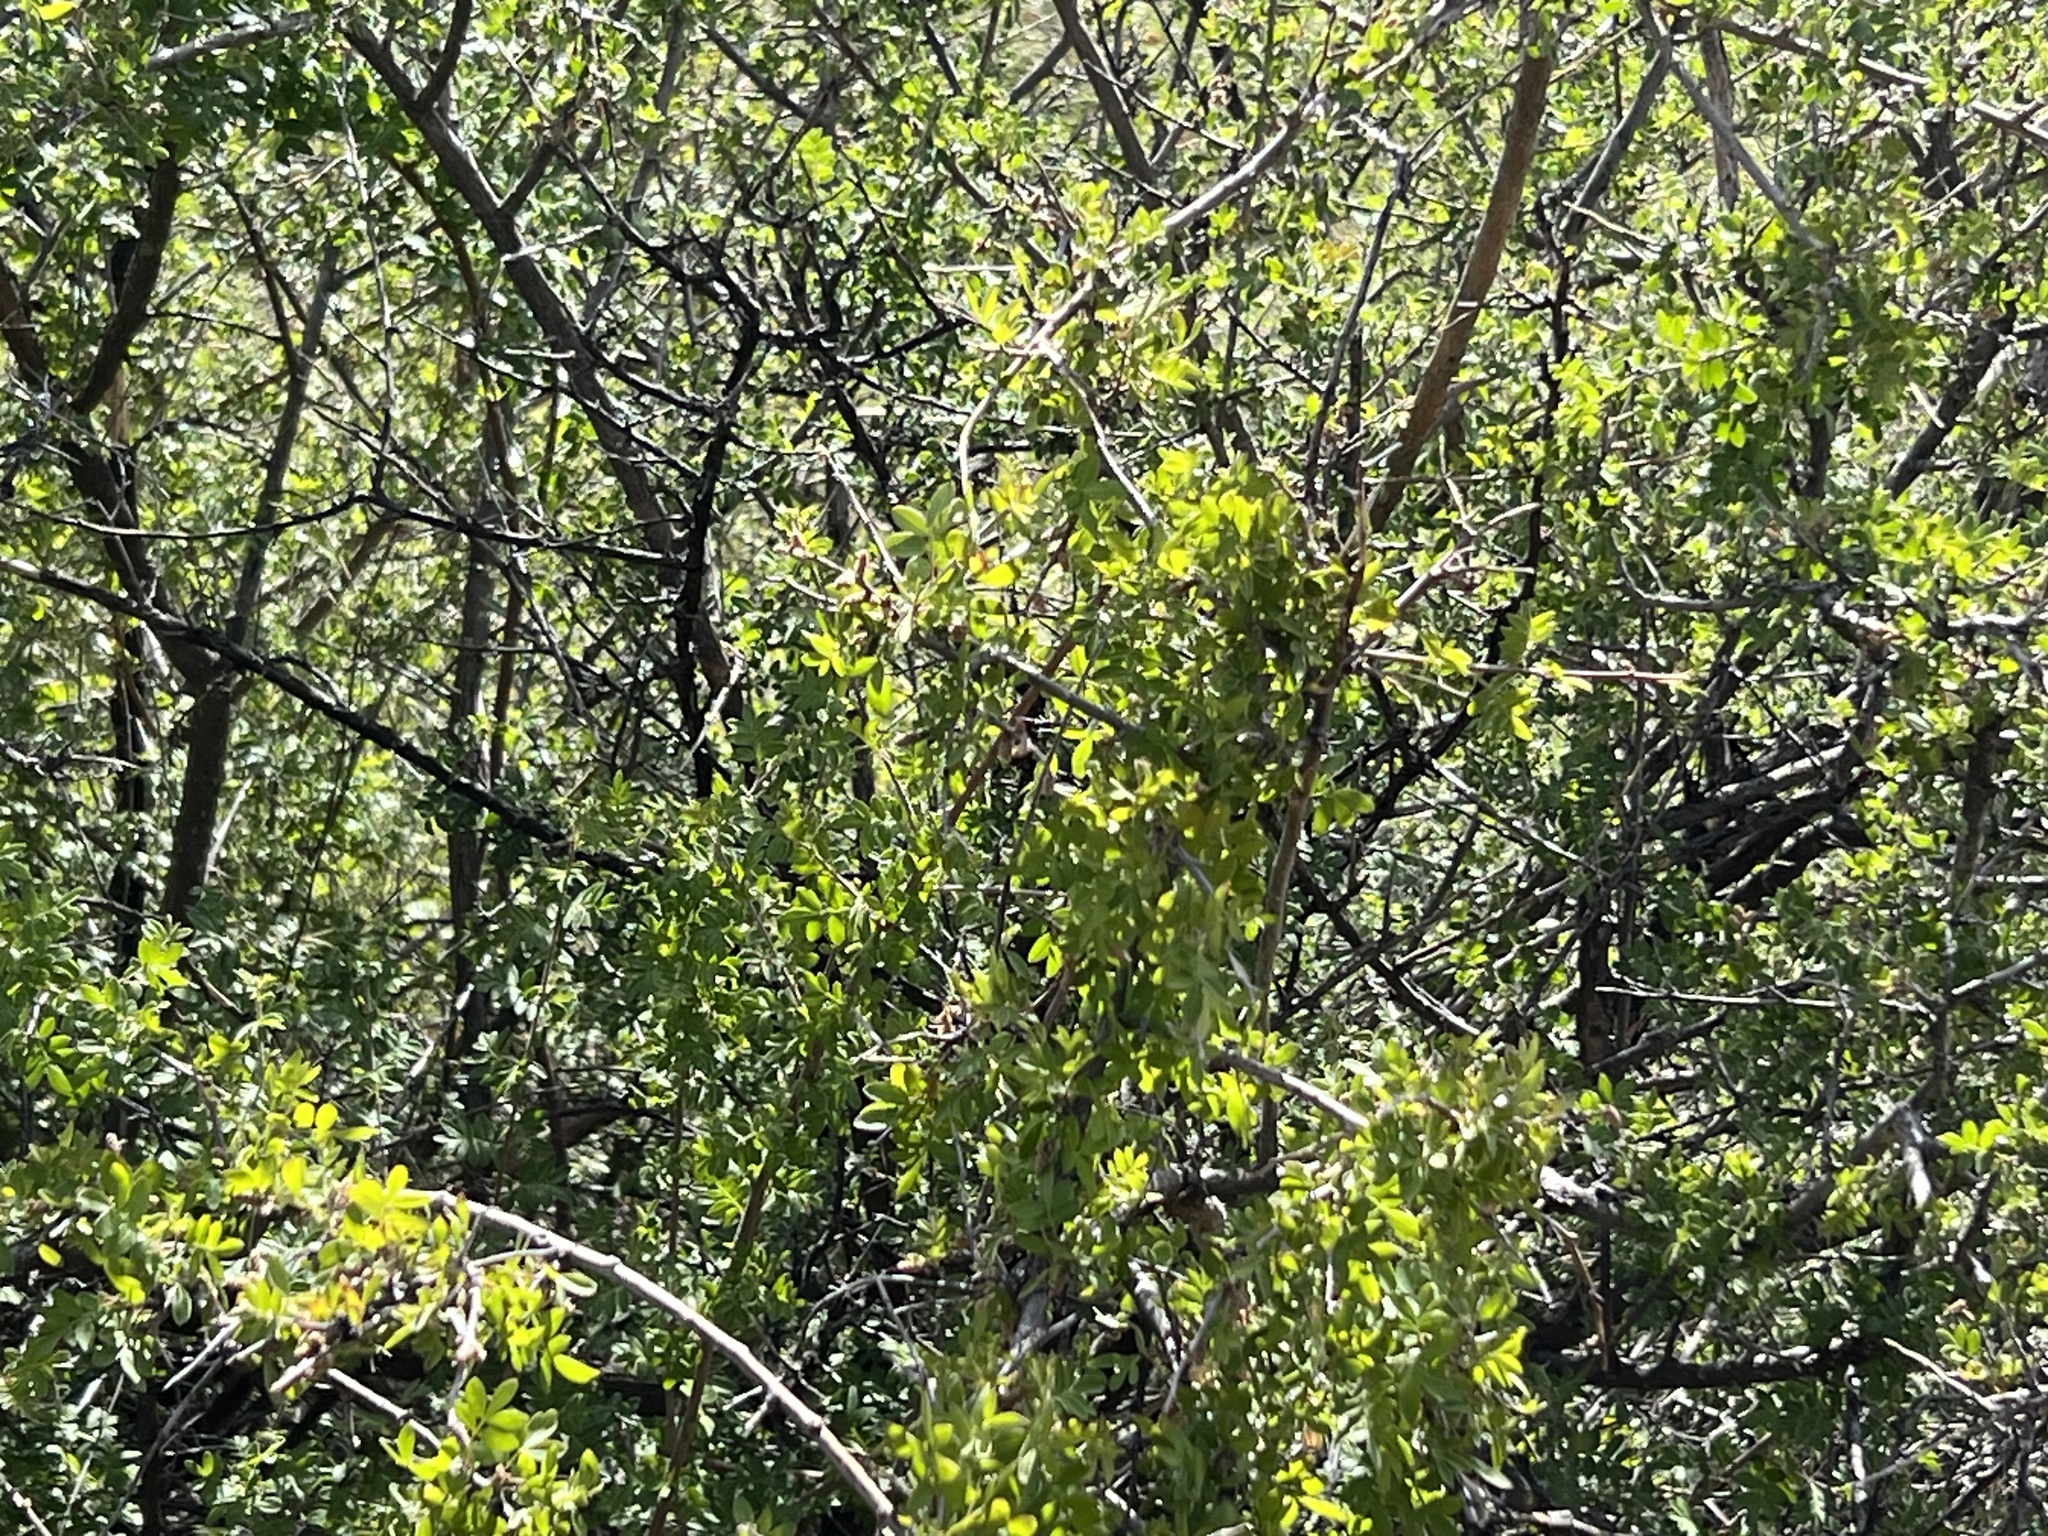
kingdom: Plantae
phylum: Tracheophyta
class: Magnoliopsida
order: Sapindales
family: Anacardiaceae
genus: Rhus
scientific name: Rhus microphylla
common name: Desert sumac
